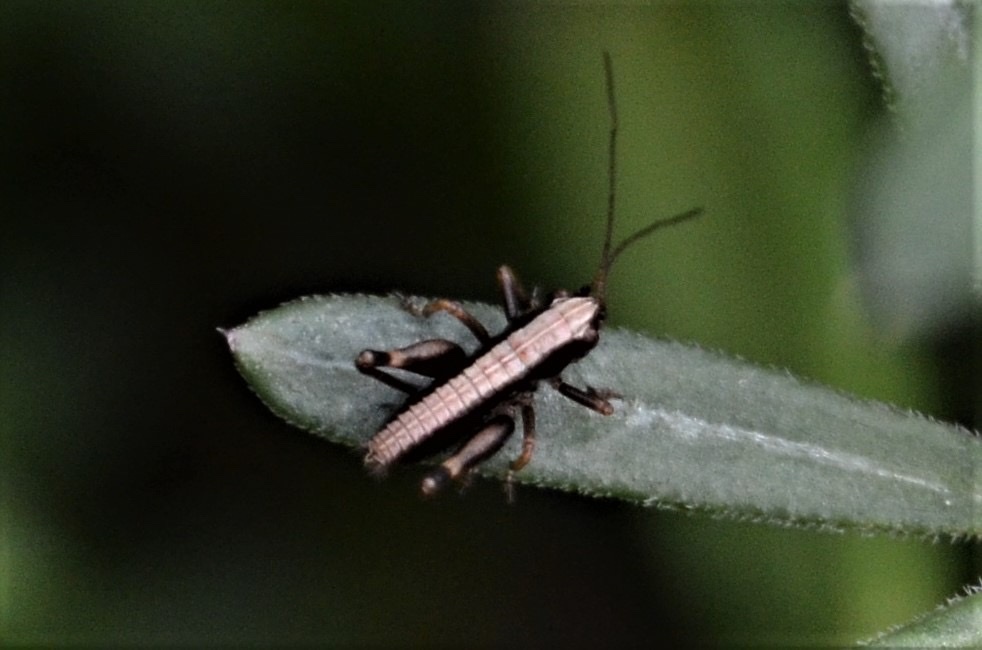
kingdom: Animalia
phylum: Arthropoda
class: Insecta
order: Orthoptera
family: Tettigoniidae
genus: Pholidoptera
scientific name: Pholidoptera griseoaptera
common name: Dark bush-cricket
